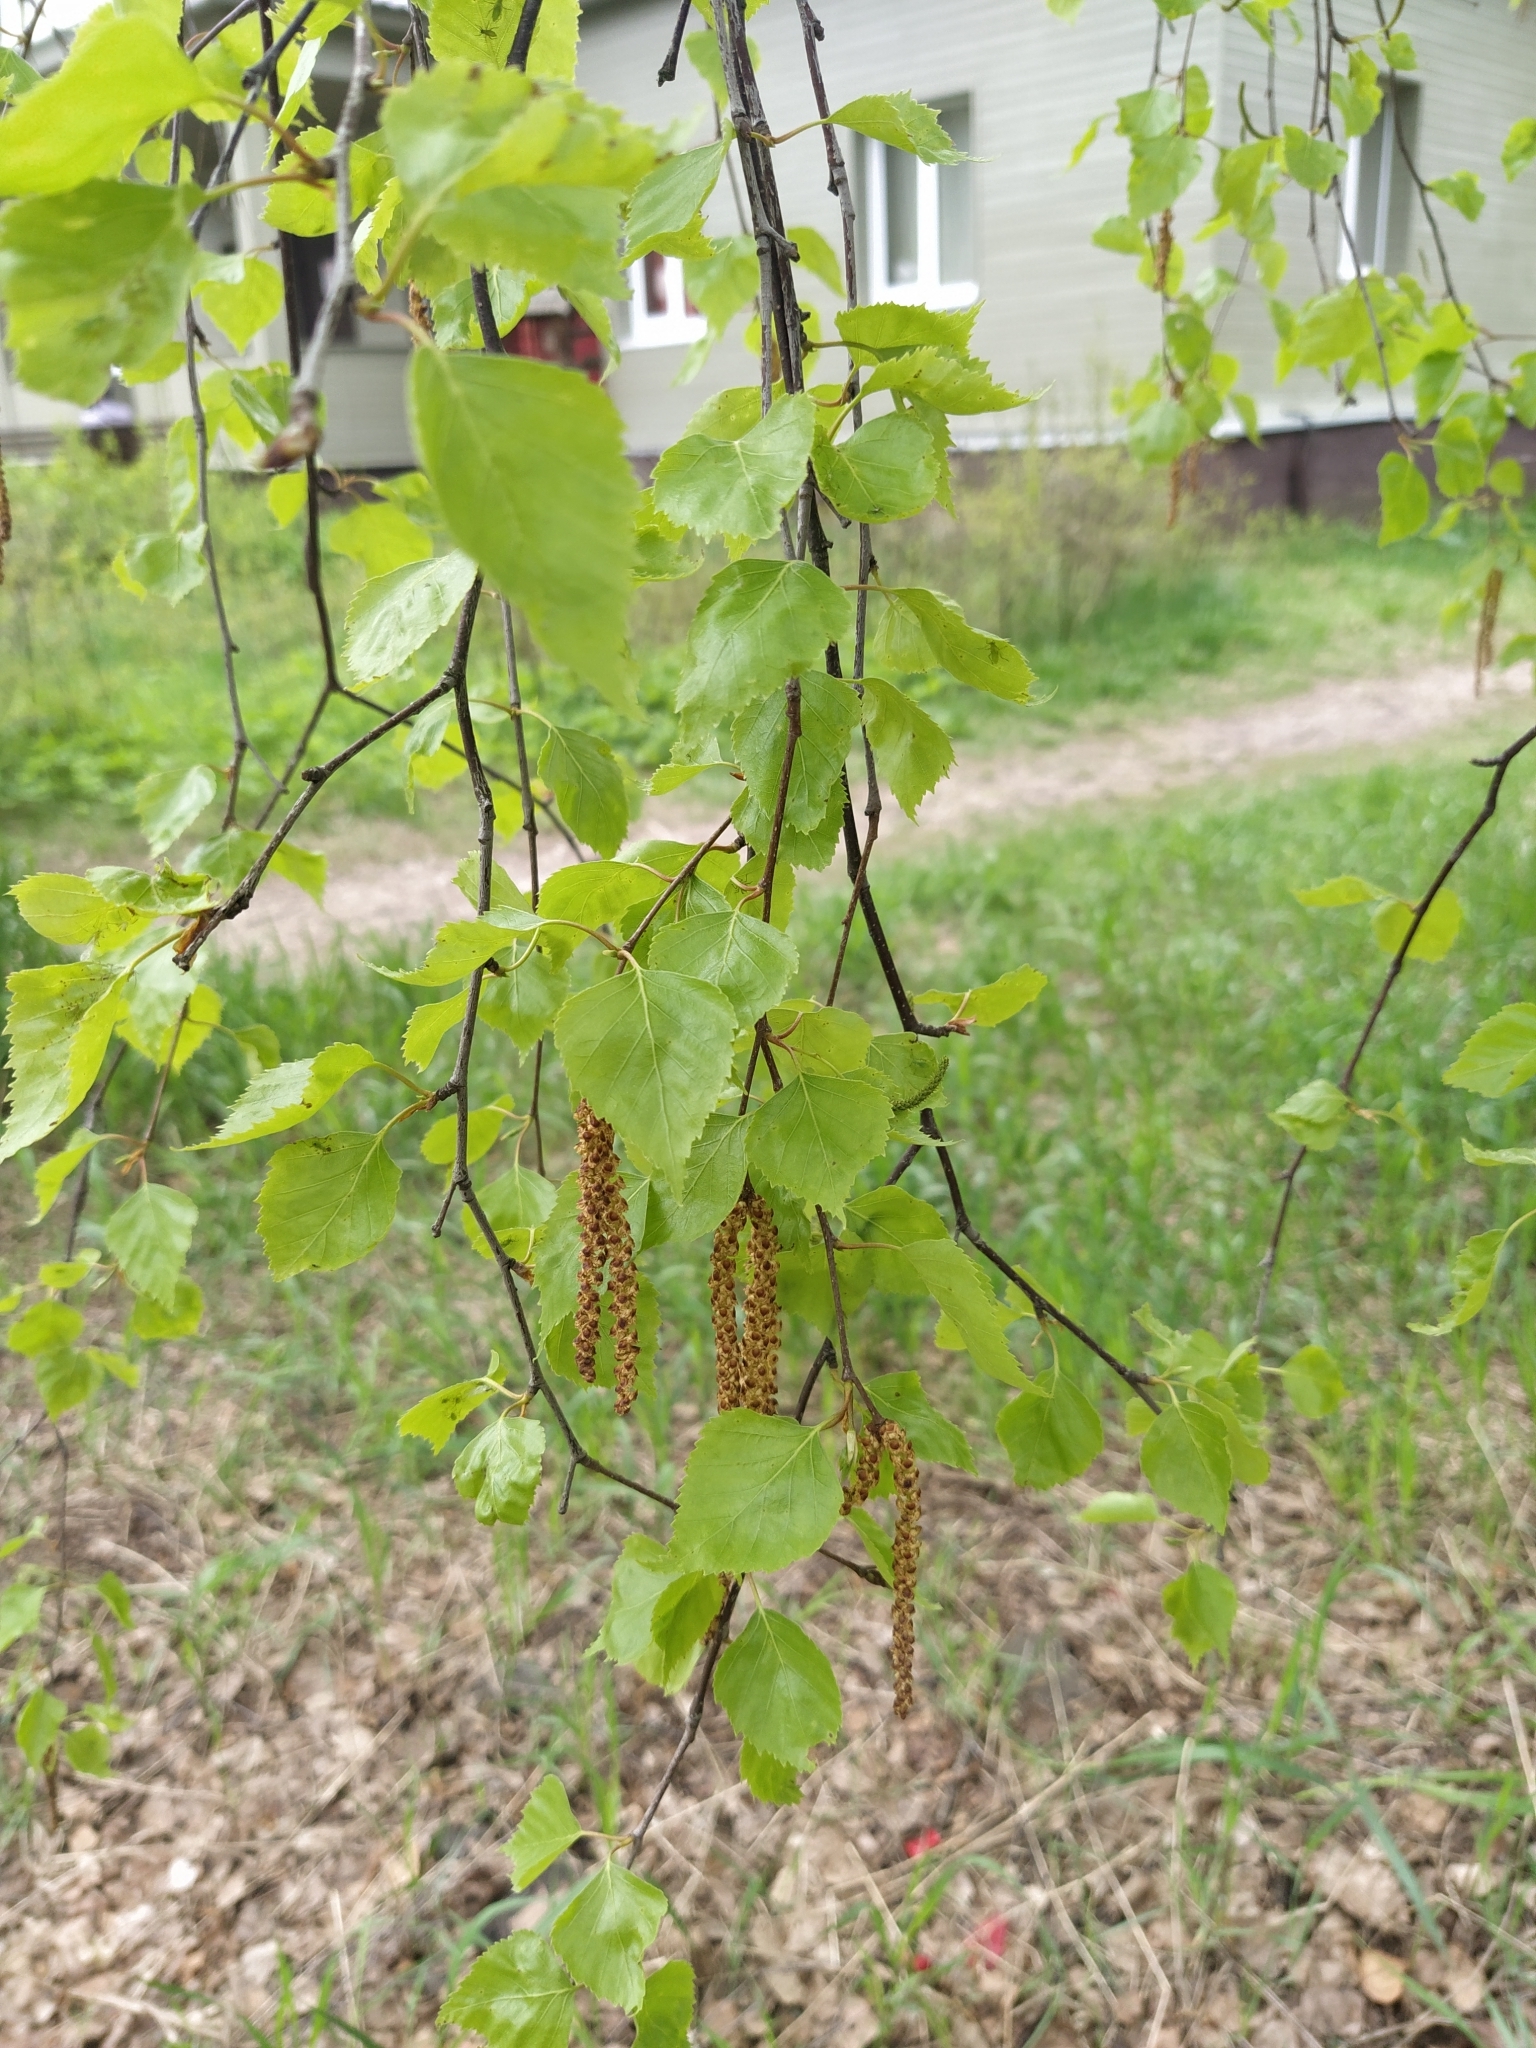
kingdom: Plantae
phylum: Tracheophyta
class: Magnoliopsida
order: Fagales
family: Betulaceae
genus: Betula
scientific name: Betula pendula
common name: Silver birch
